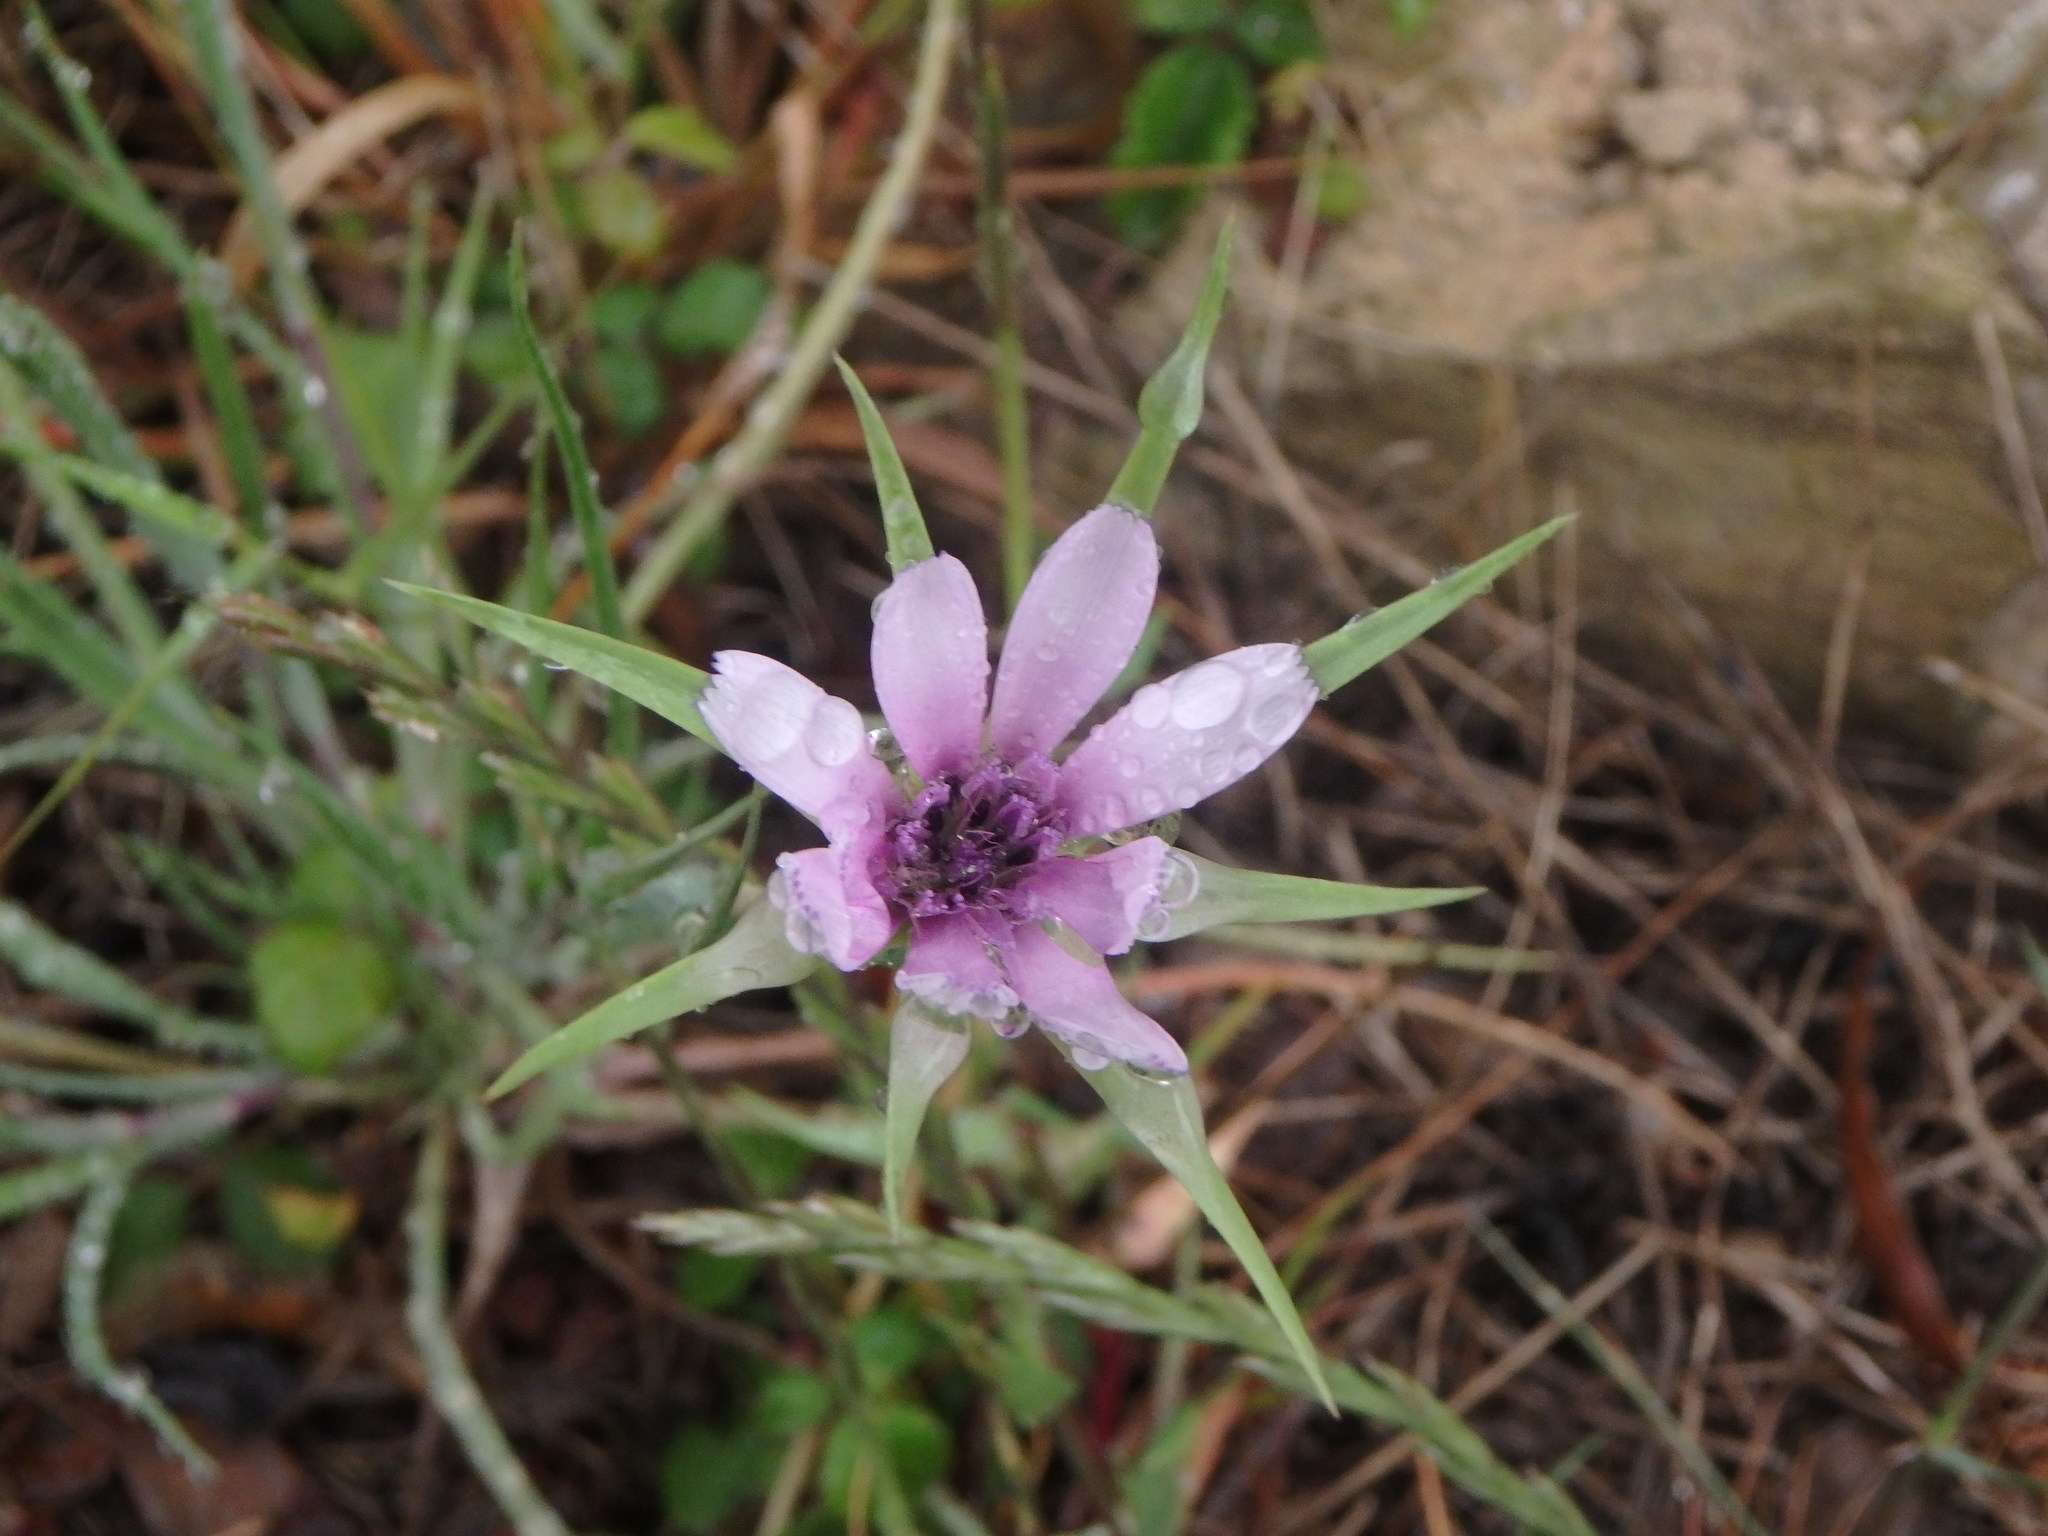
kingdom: Plantae
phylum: Tracheophyta
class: Magnoliopsida
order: Asterales
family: Asteraceae
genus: Tragopogon
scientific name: Tragopogon porrifolius
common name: Salsify
